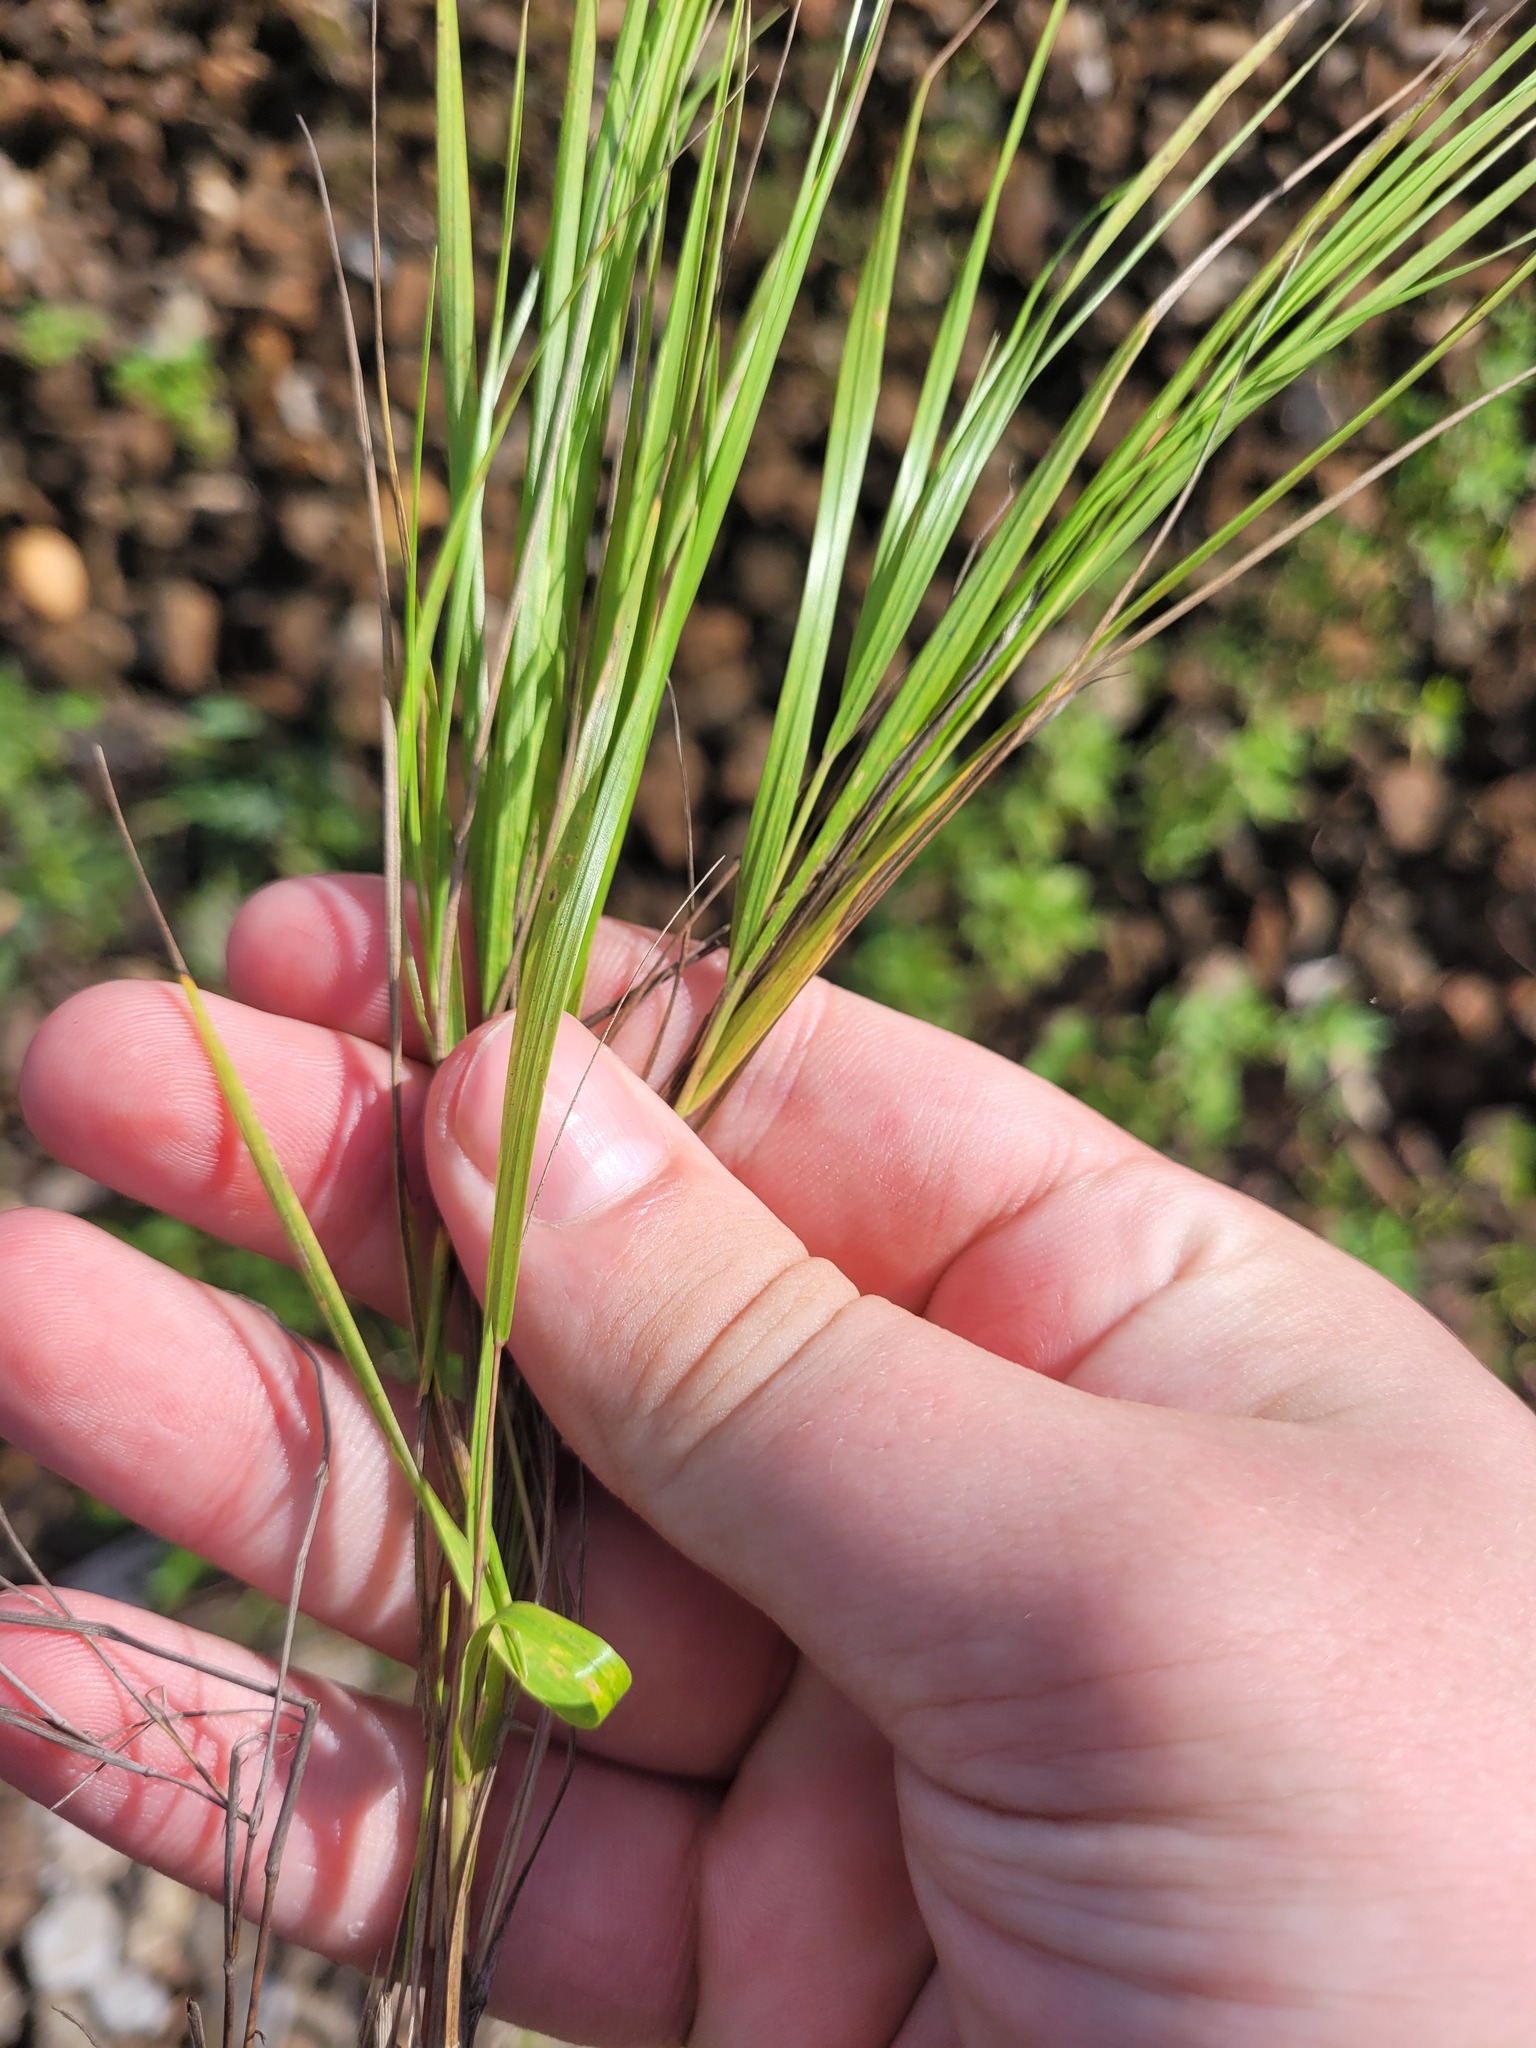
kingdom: Plantae
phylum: Tracheophyta
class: Liliopsida
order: Poales
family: Poaceae
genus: Melica
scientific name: Melica nutans
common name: Mountain melick
